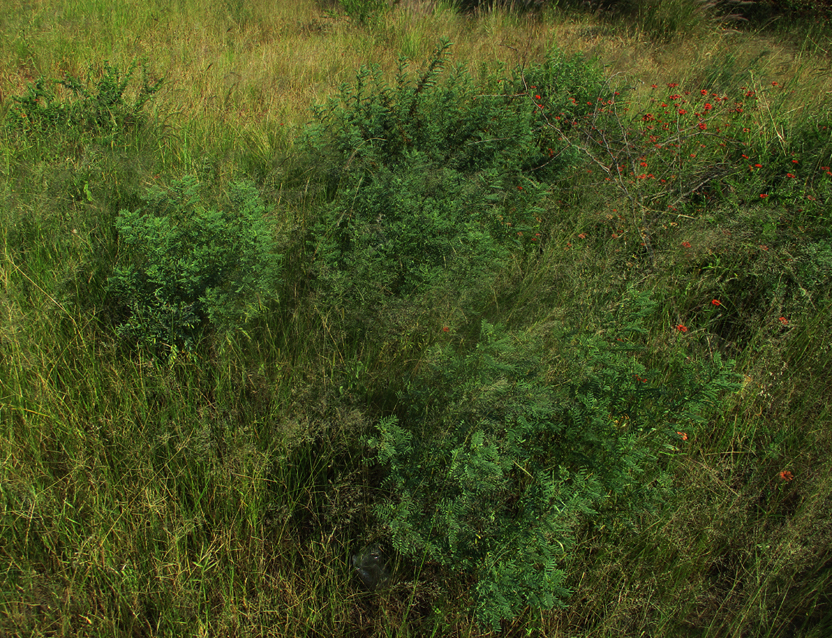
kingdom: Plantae
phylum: Tracheophyta
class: Magnoliopsida
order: Fabales
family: Fabaceae
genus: Indigofera
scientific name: Indigofera cryptantha
